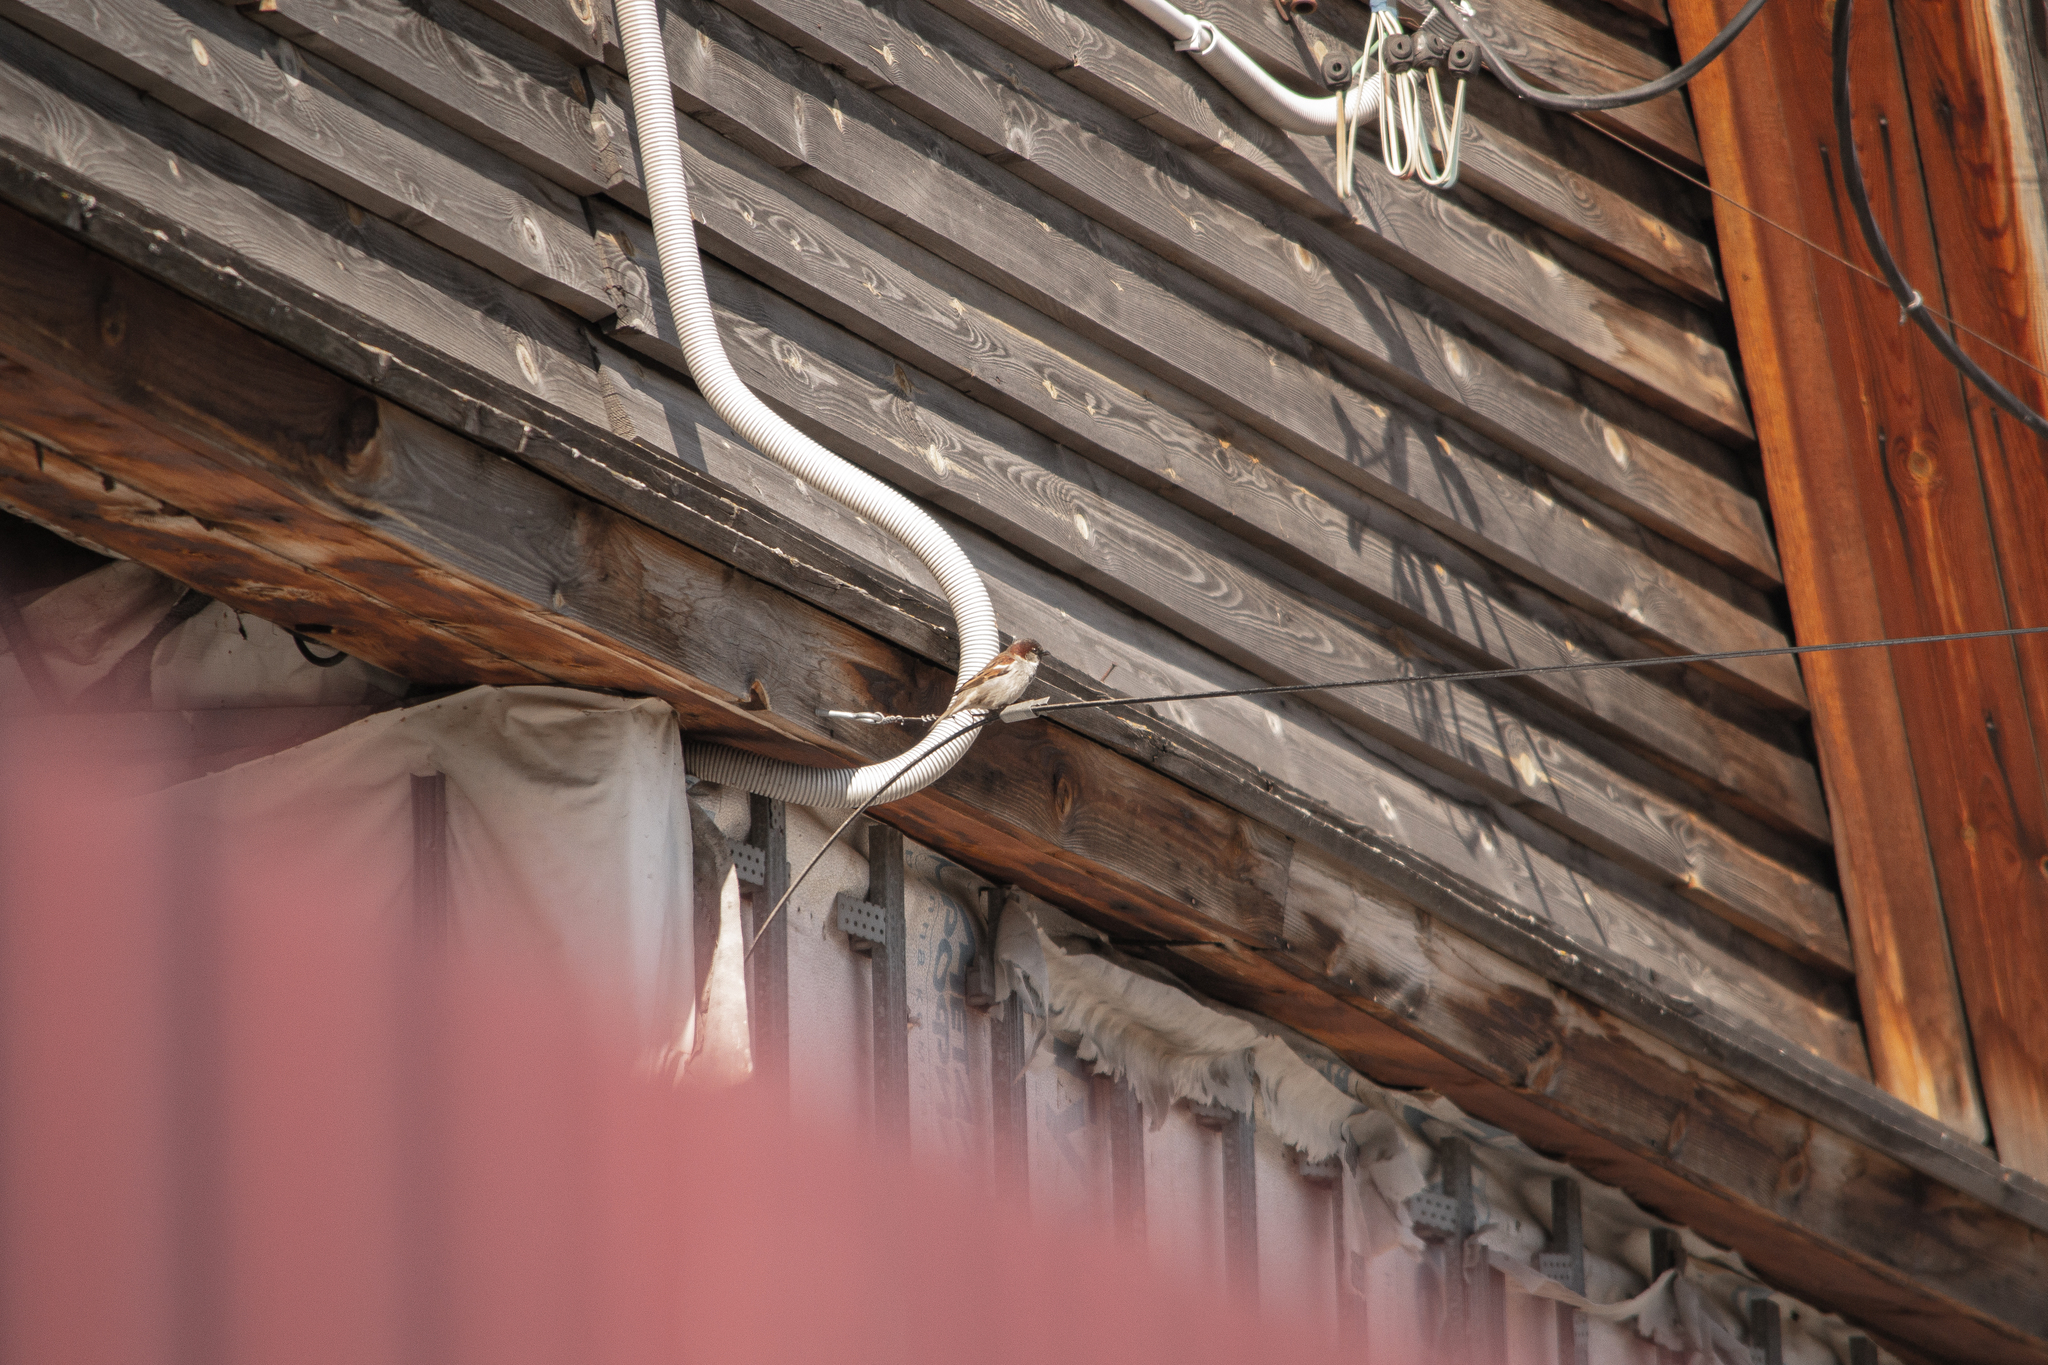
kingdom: Animalia
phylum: Chordata
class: Aves
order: Passeriformes
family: Passeridae
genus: Passer
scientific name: Passer domesticus
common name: House sparrow
